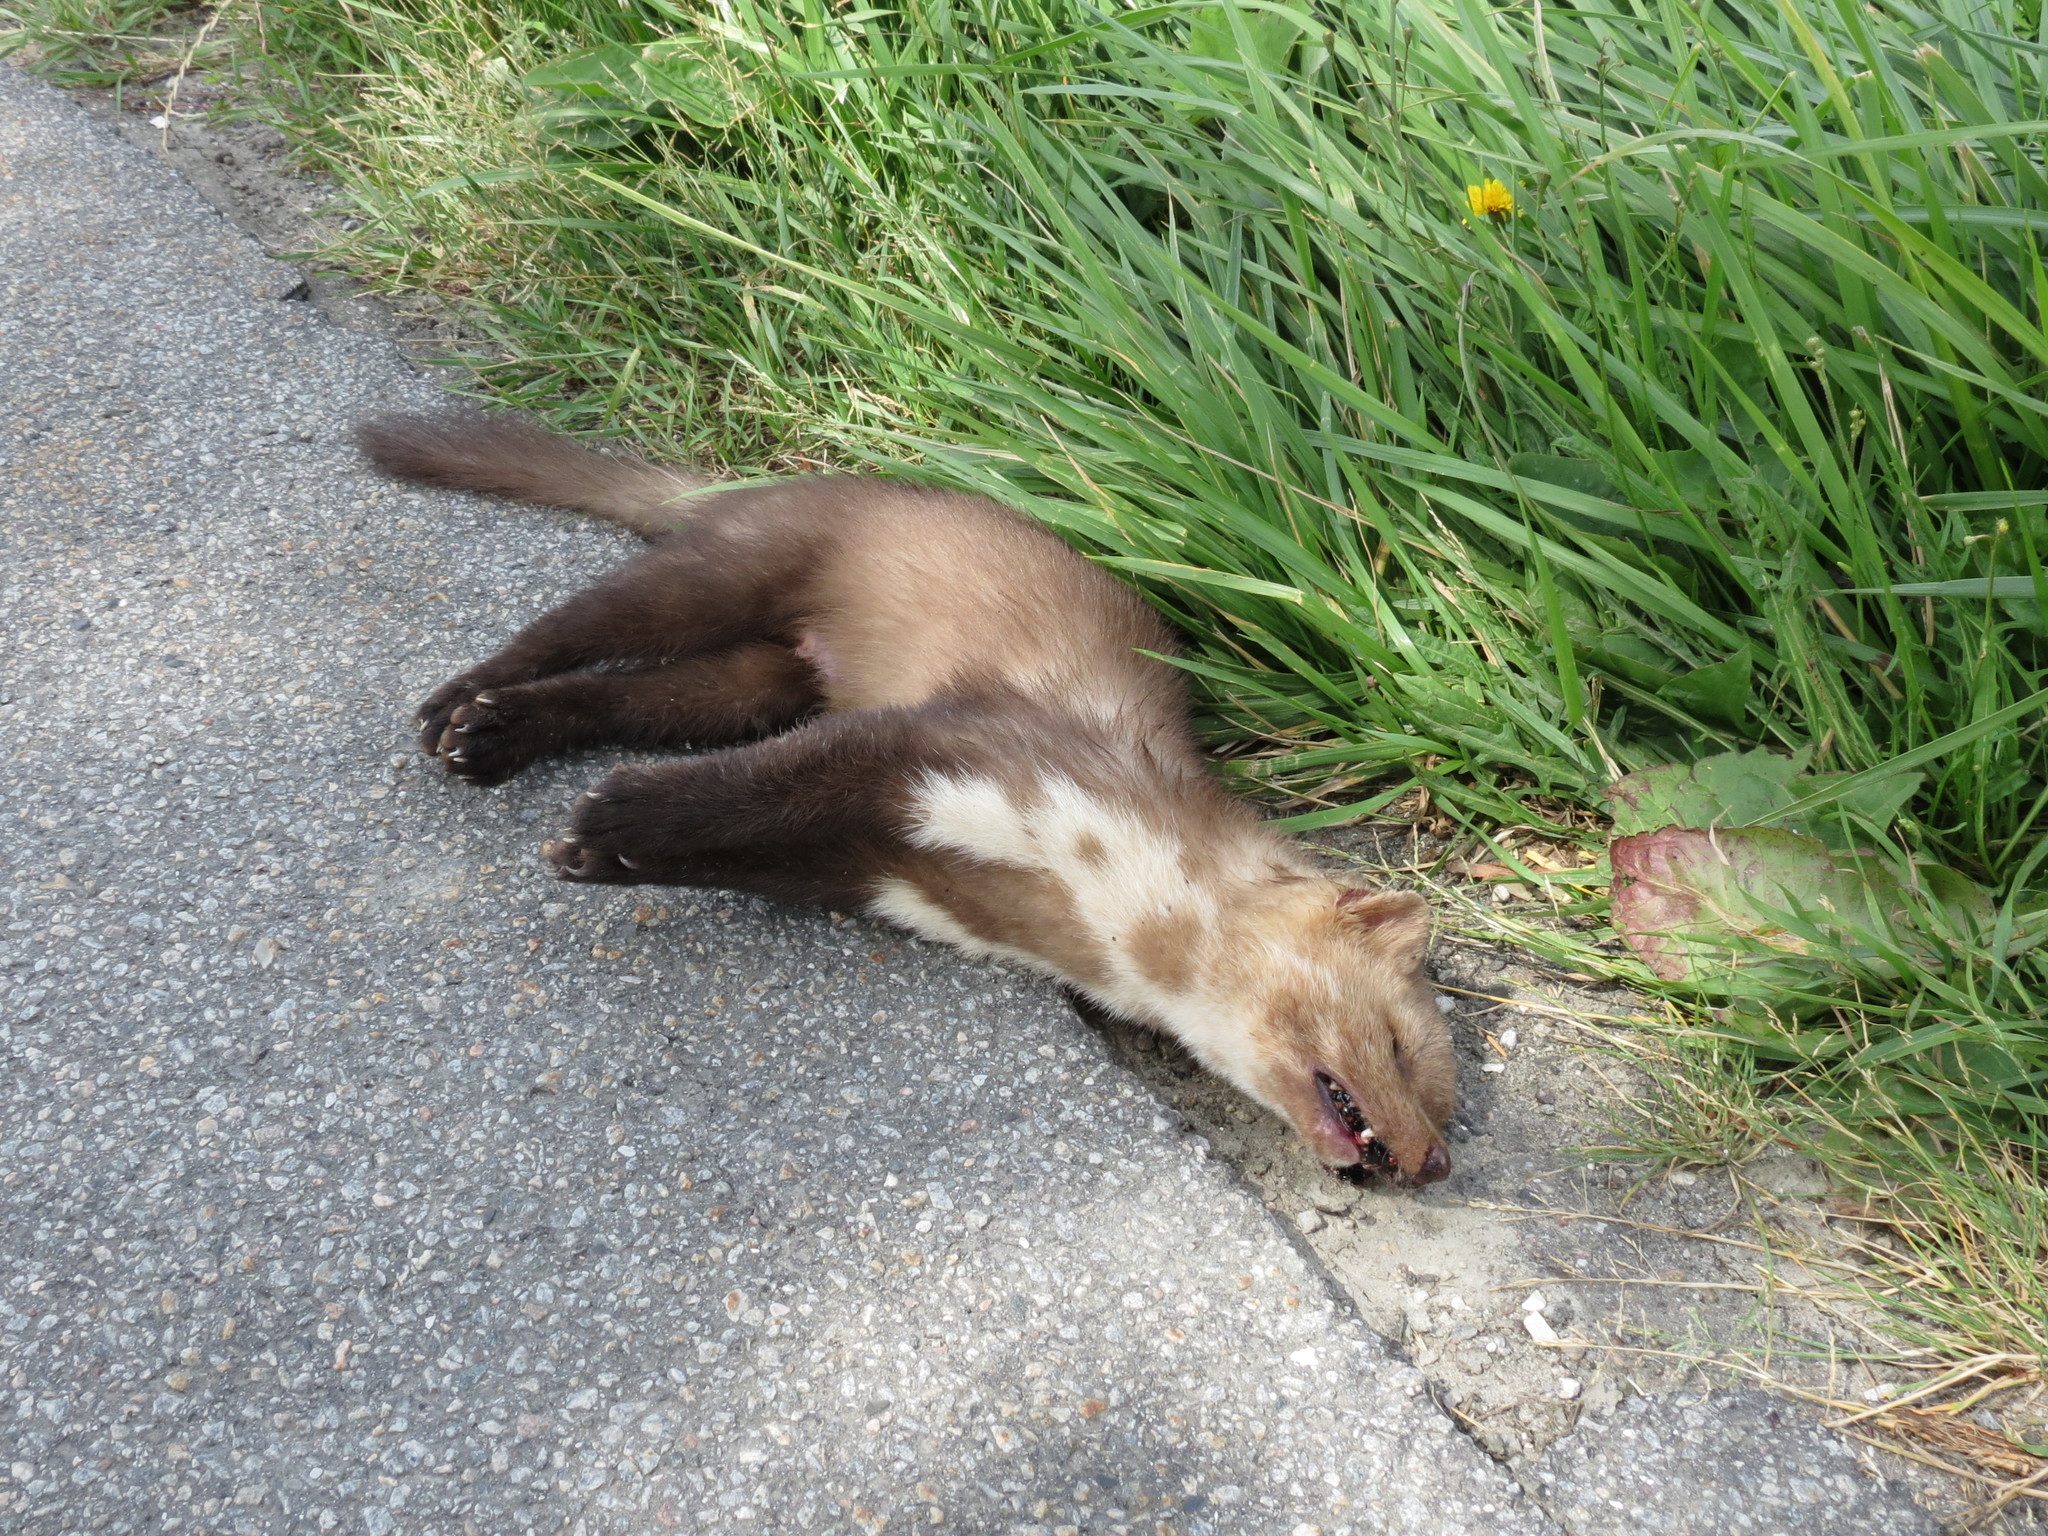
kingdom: Animalia
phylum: Chordata
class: Mammalia
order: Carnivora
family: Mustelidae
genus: Martes
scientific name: Martes foina
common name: Beech marten
